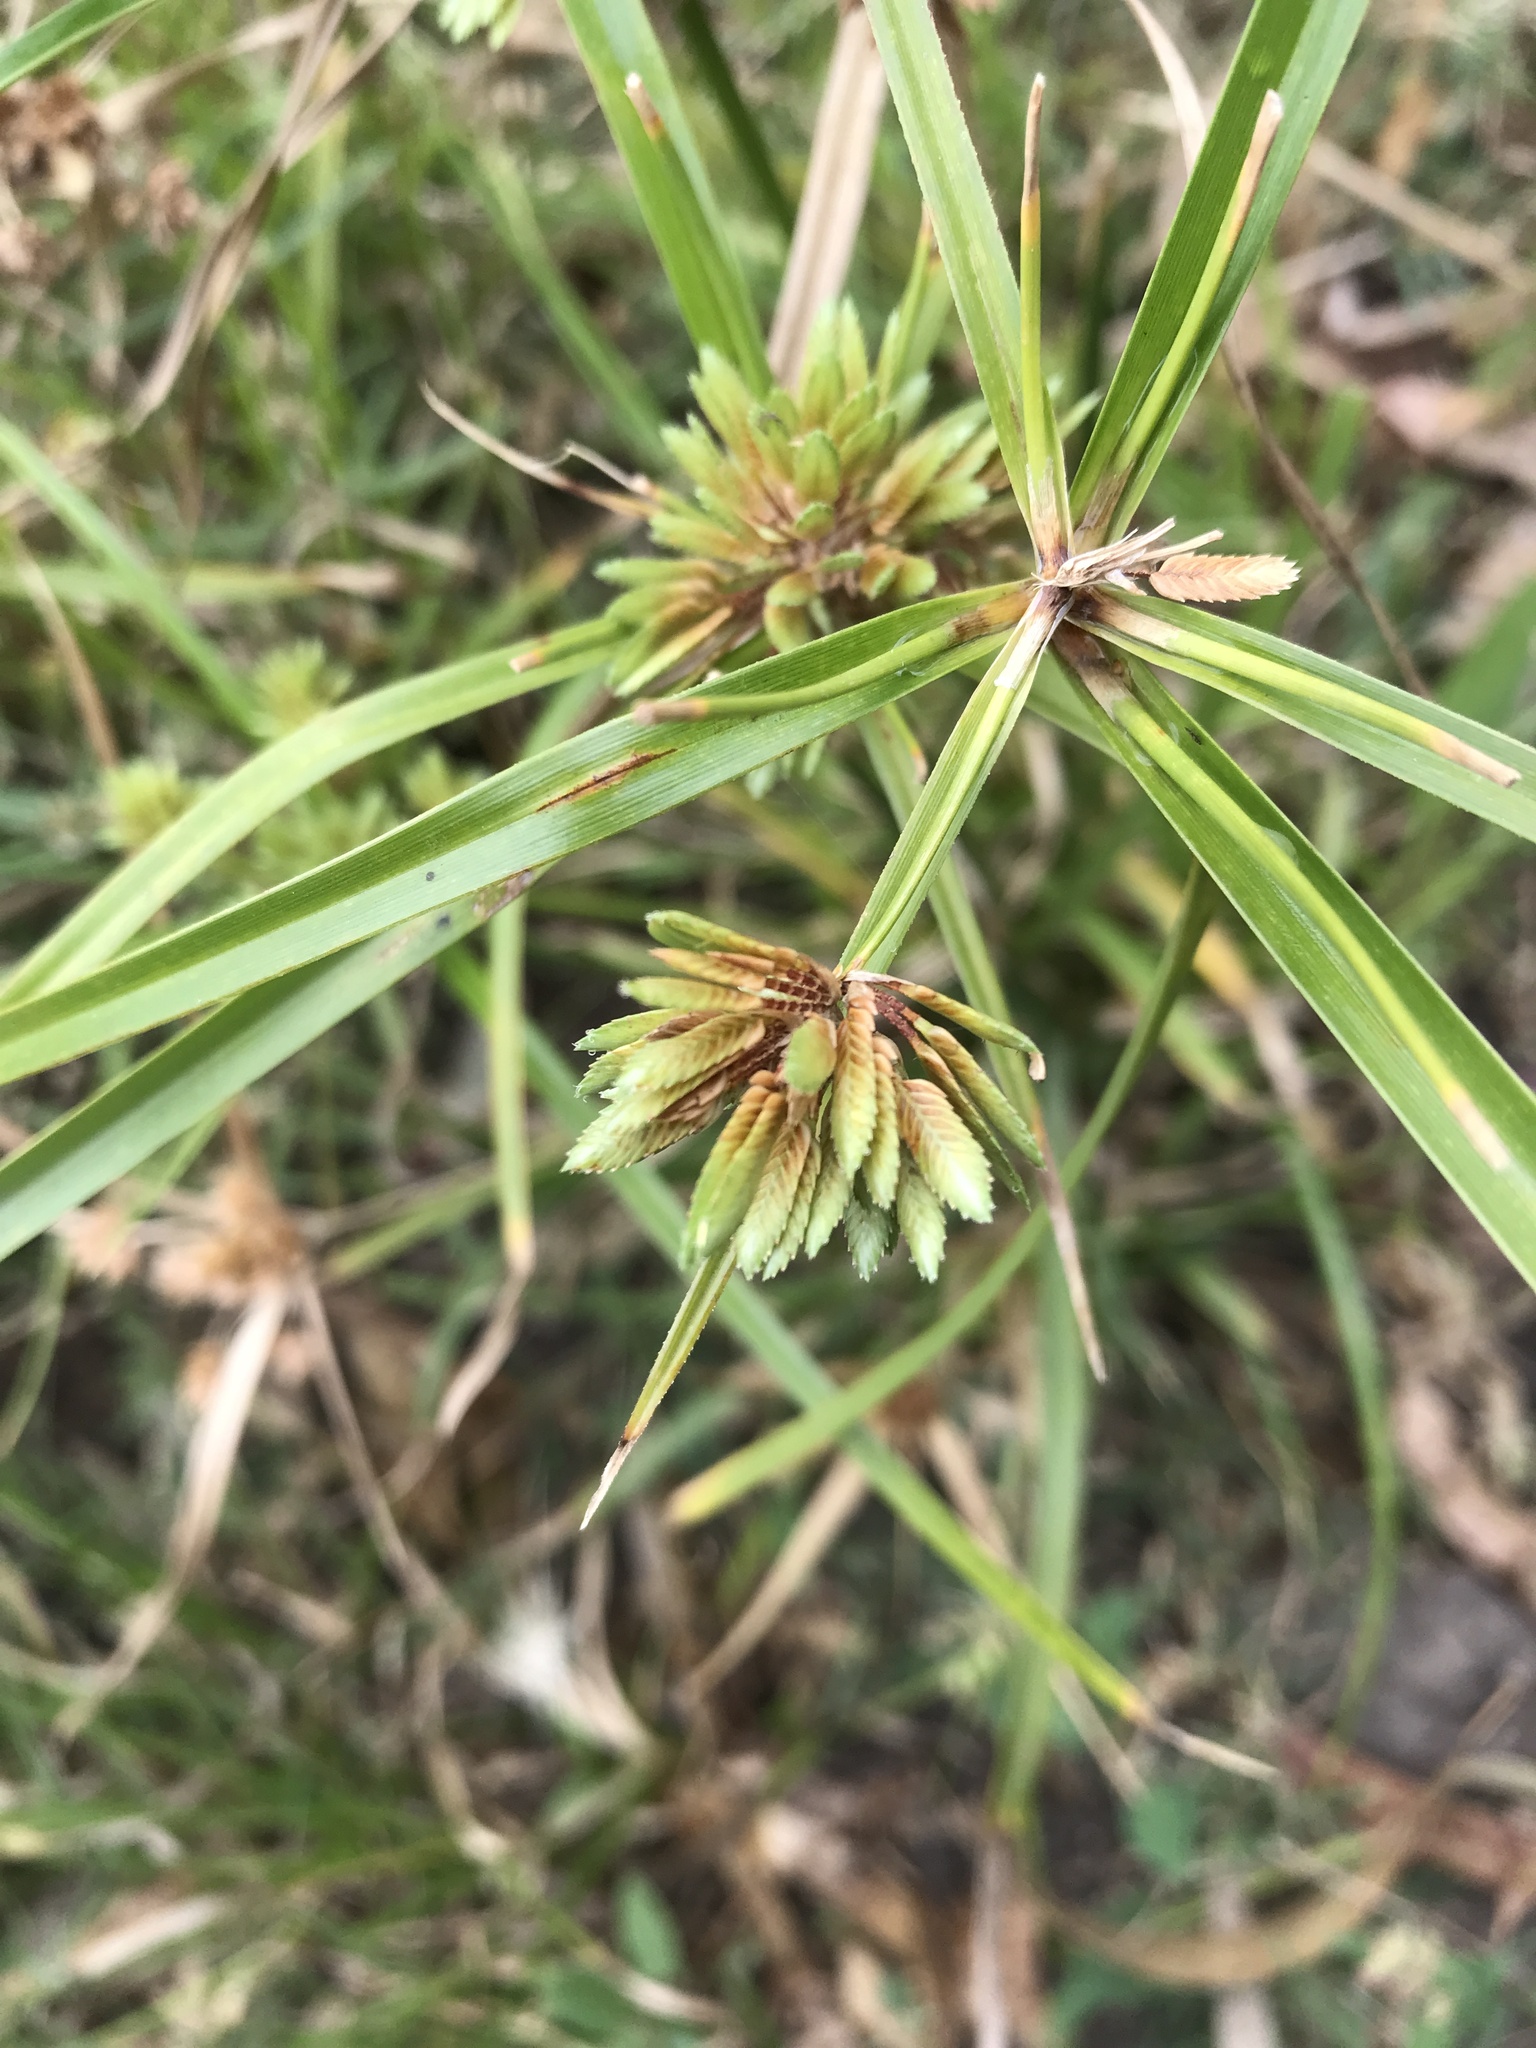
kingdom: Plantae
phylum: Tracheophyta
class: Liliopsida
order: Poales
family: Cyperaceae
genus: Cyperus
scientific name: Cyperus eragrostis
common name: Tall flatsedge
